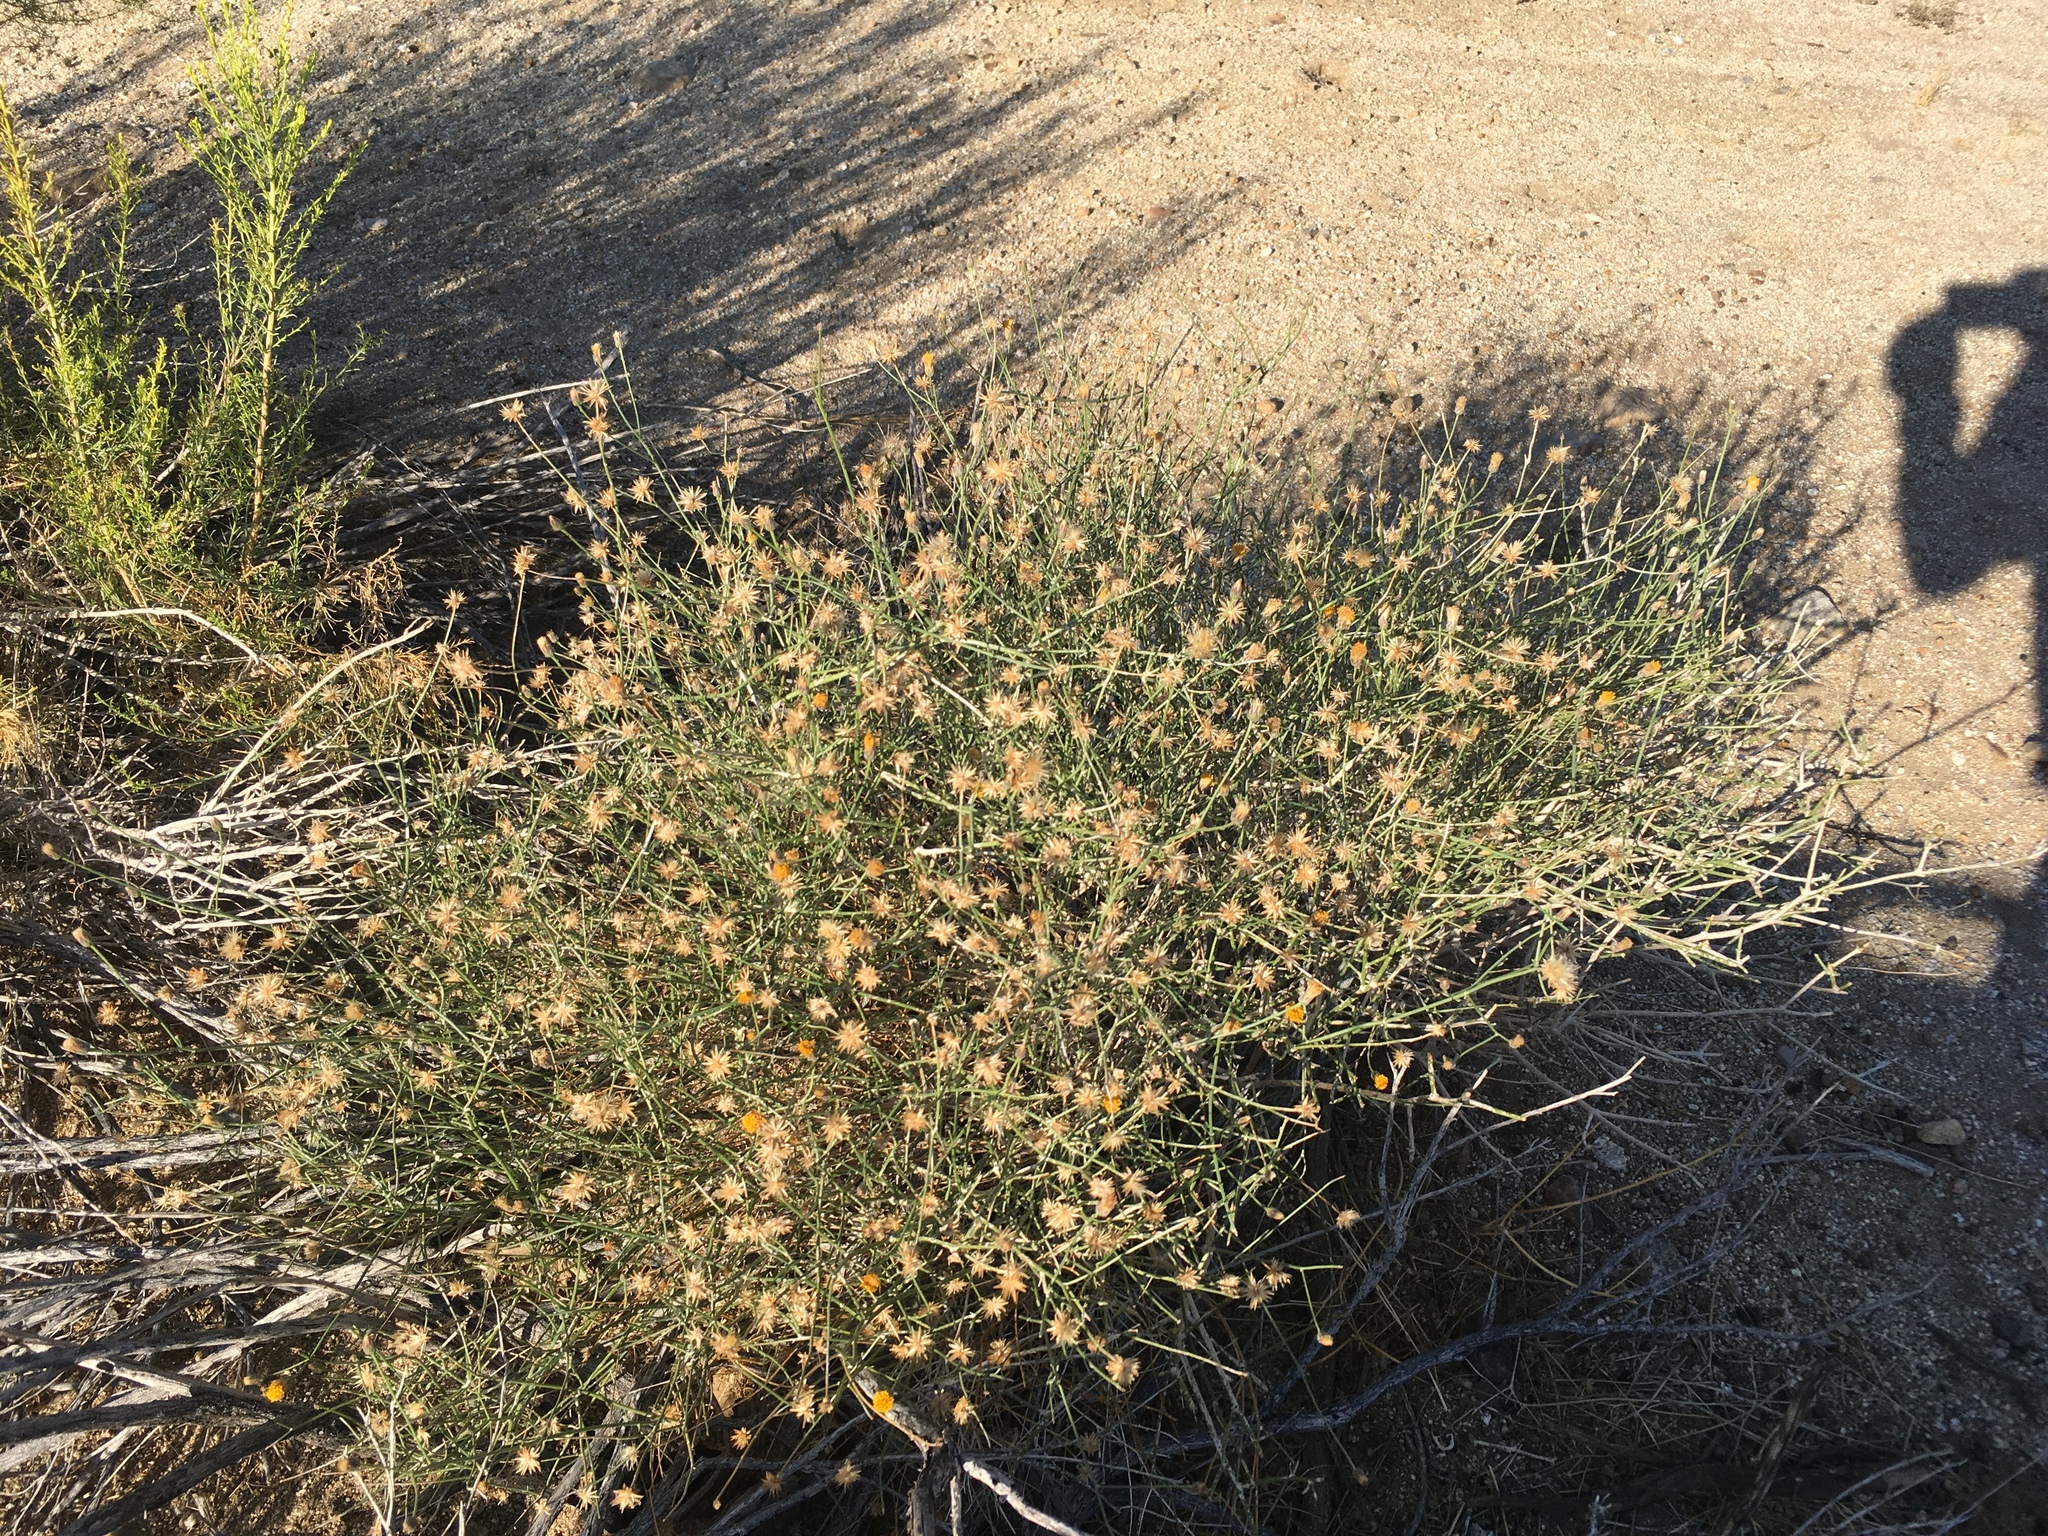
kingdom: Plantae
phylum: Tracheophyta
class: Magnoliopsida
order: Asterales
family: Asteraceae
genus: Bebbia
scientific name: Bebbia juncea
